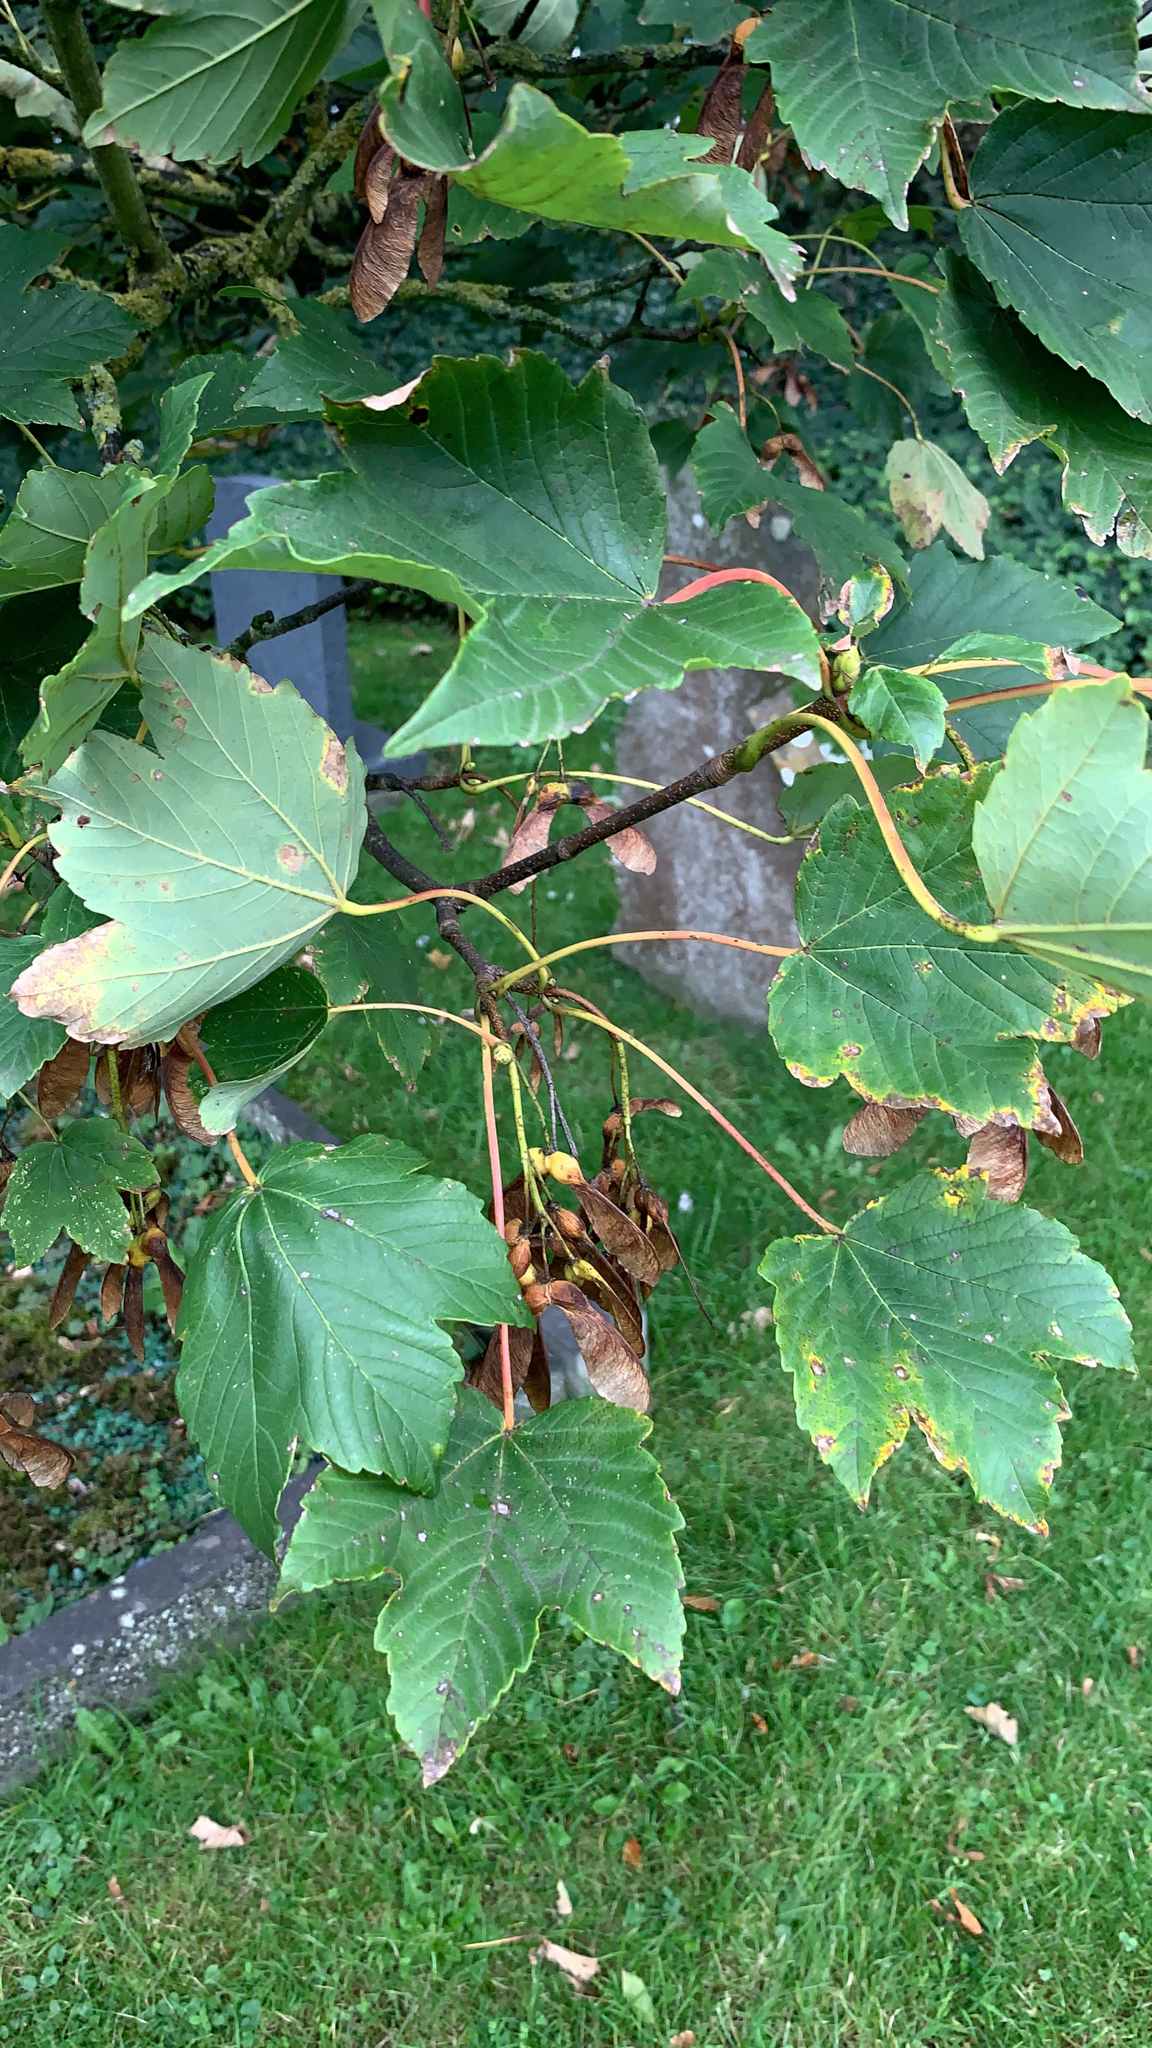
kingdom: Plantae
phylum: Tracheophyta
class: Magnoliopsida
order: Sapindales
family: Sapindaceae
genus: Acer
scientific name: Acer pseudoplatanus
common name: Sycamore
